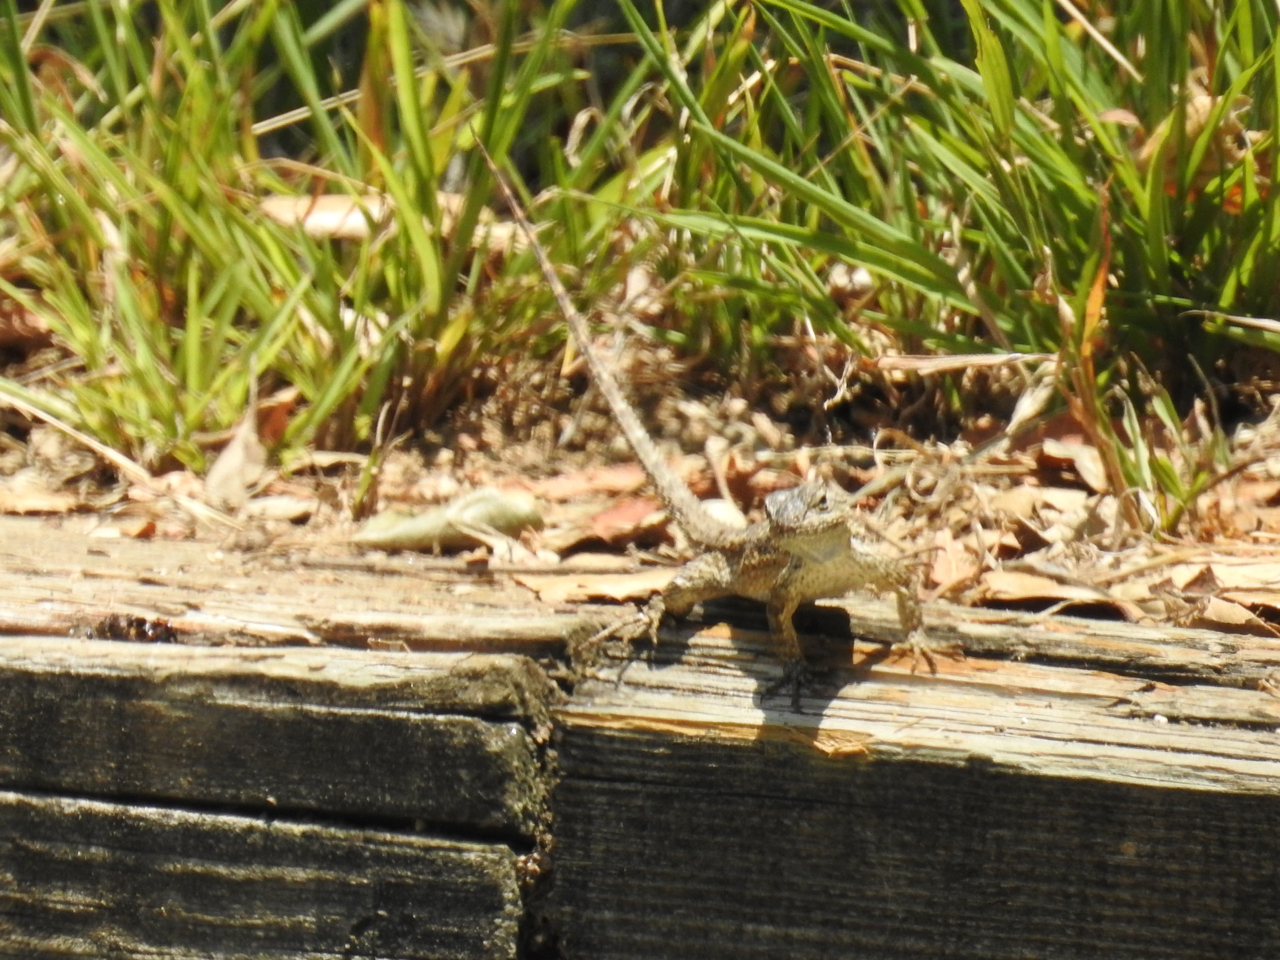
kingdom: Animalia
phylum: Chordata
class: Squamata
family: Phrynosomatidae
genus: Sceloporus
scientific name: Sceloporus occidentalis
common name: Western fence lizard
